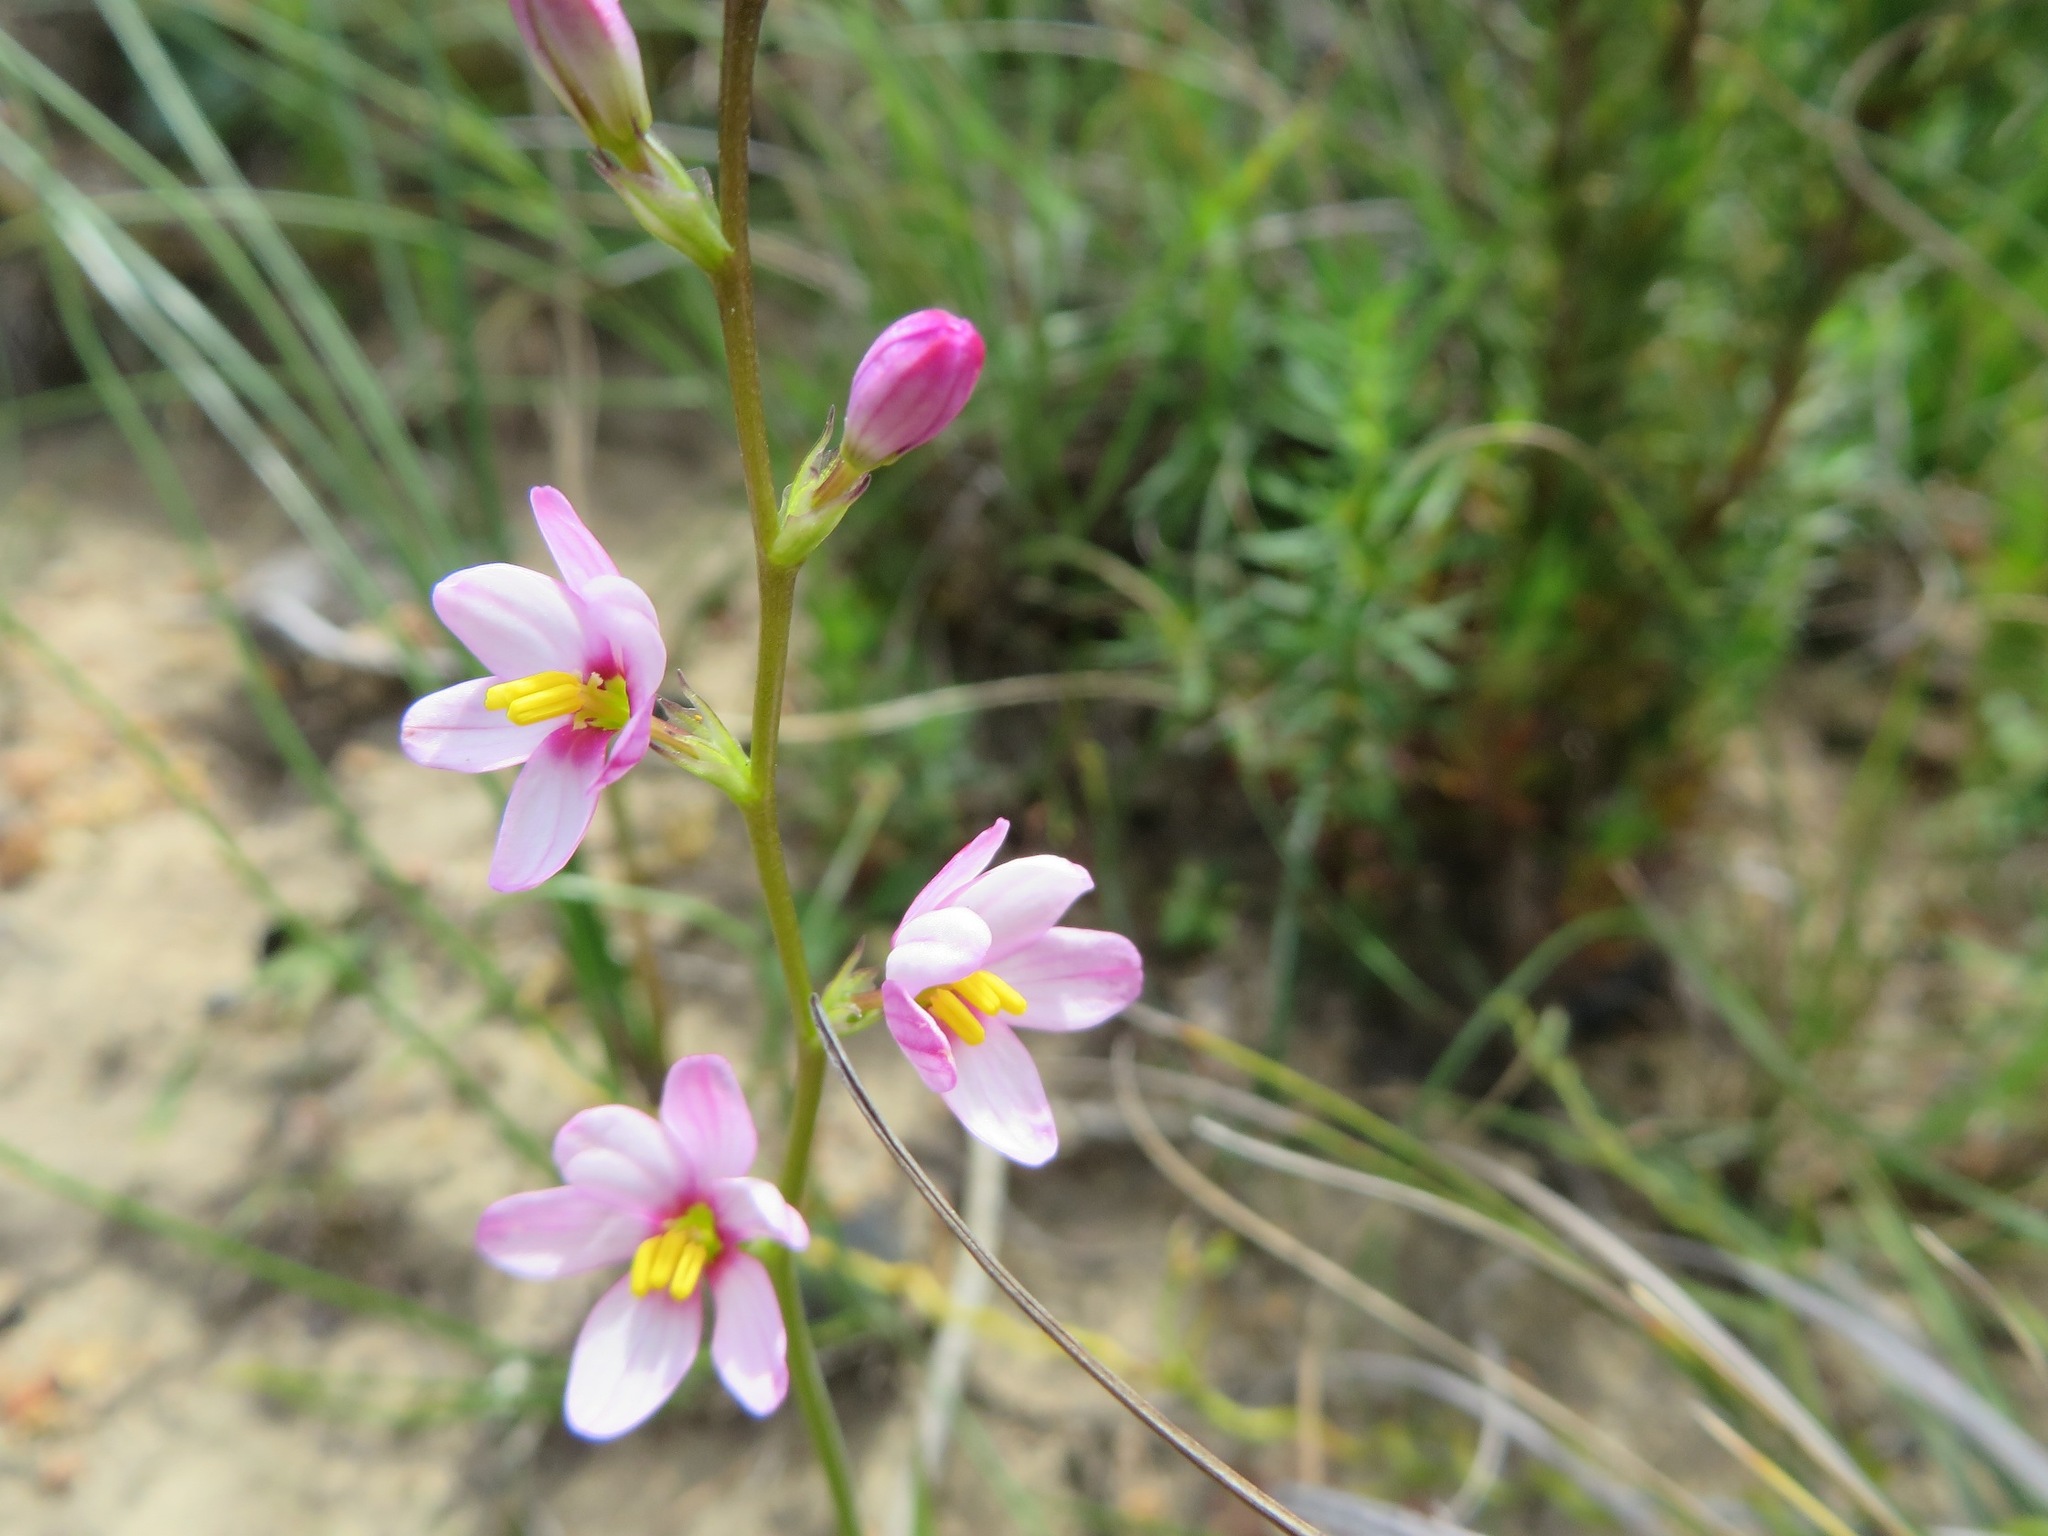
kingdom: Plantae
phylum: Tracheophyta
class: Liliopsida
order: Asparagales
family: Iridaceae
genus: Ixia
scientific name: Ixia scillaris
